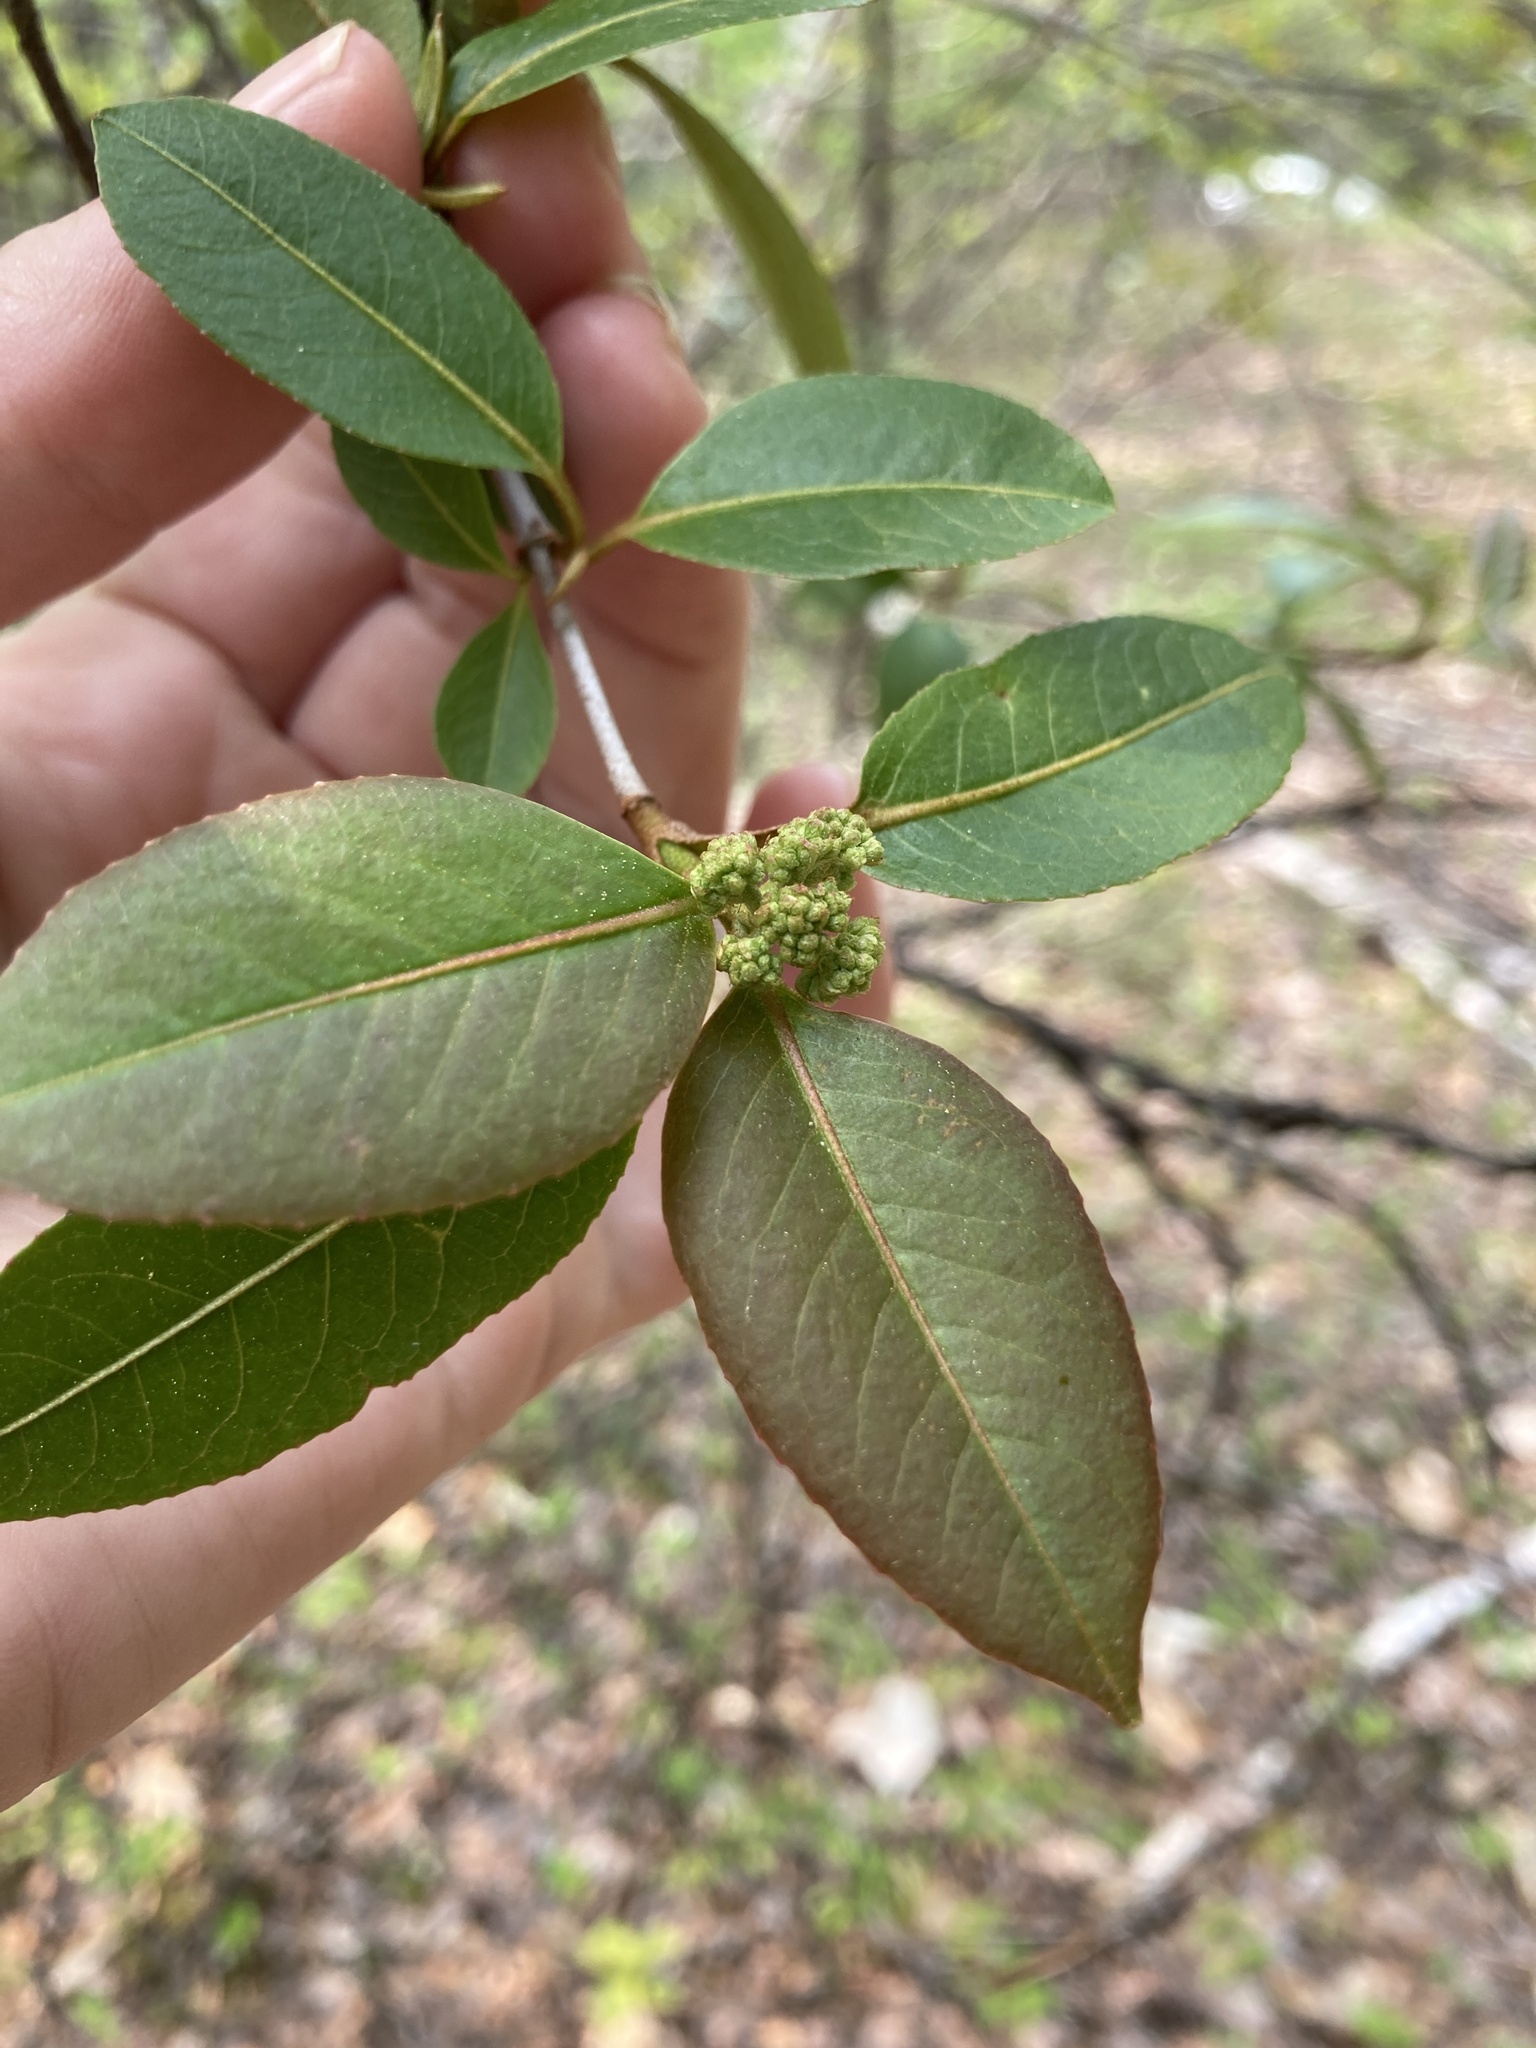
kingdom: Plantae
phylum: Tracheophyta
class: Magnoliopsida
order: Dipsacales
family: Viburnaceae
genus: Viburnum
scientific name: Viburnum cassinoides
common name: Swamp haw
